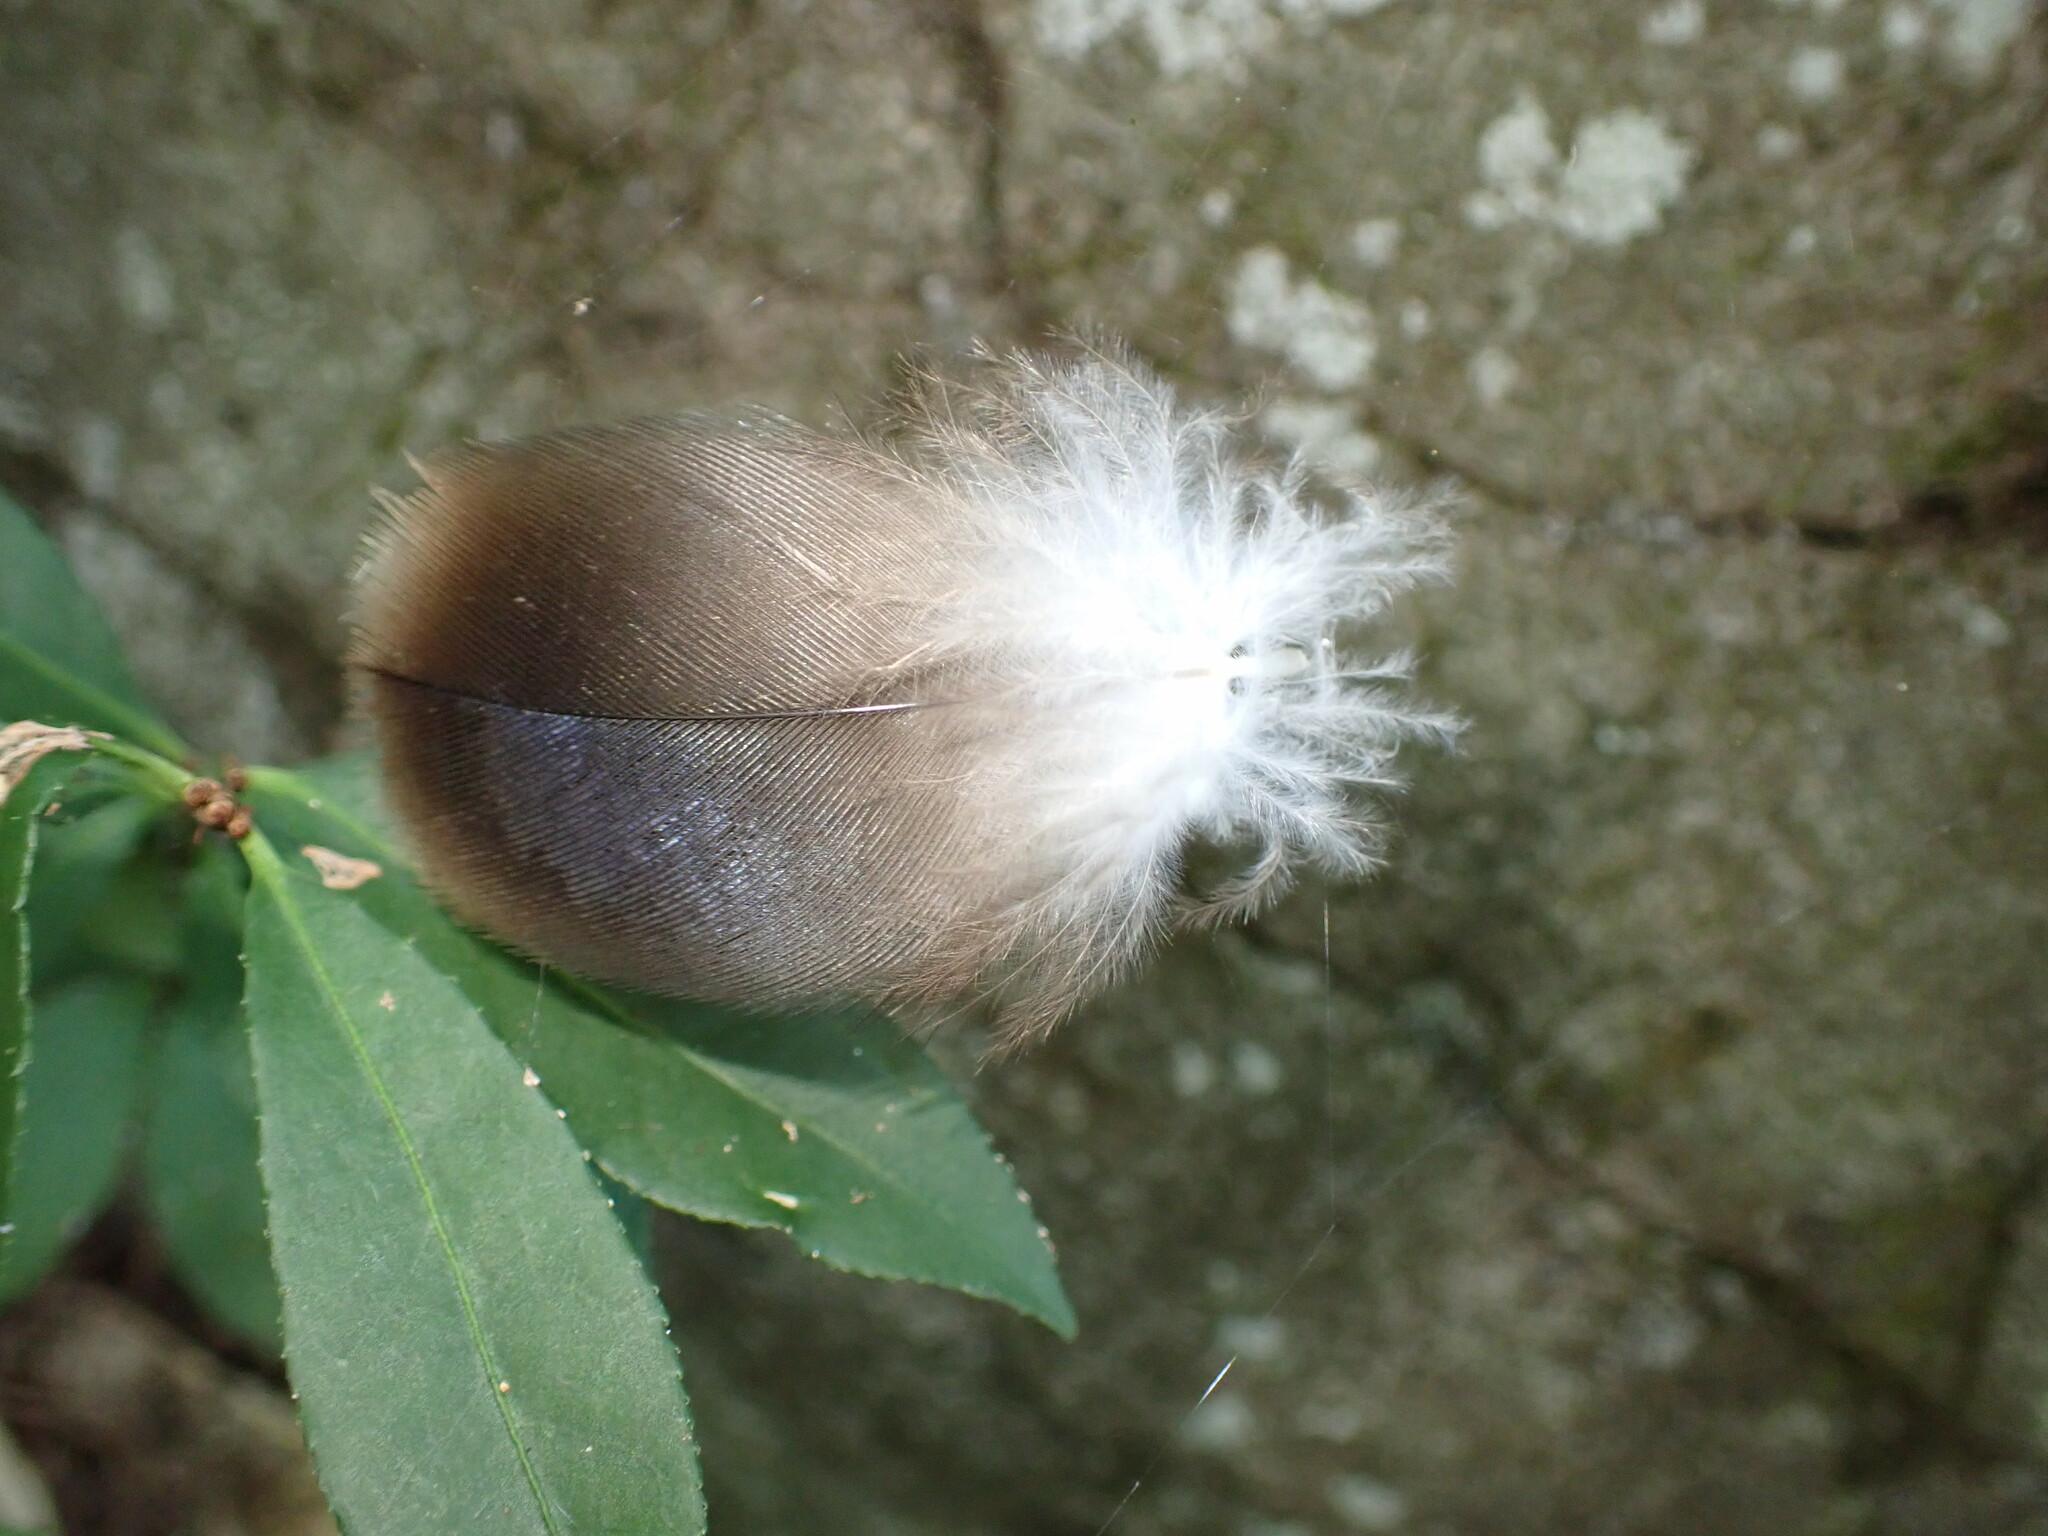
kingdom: Animalia
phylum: Chordata
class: Aves
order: Accipitriformes
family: Cathartidae
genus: Cathartes
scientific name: Cathartes aura
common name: Turkey vulture
